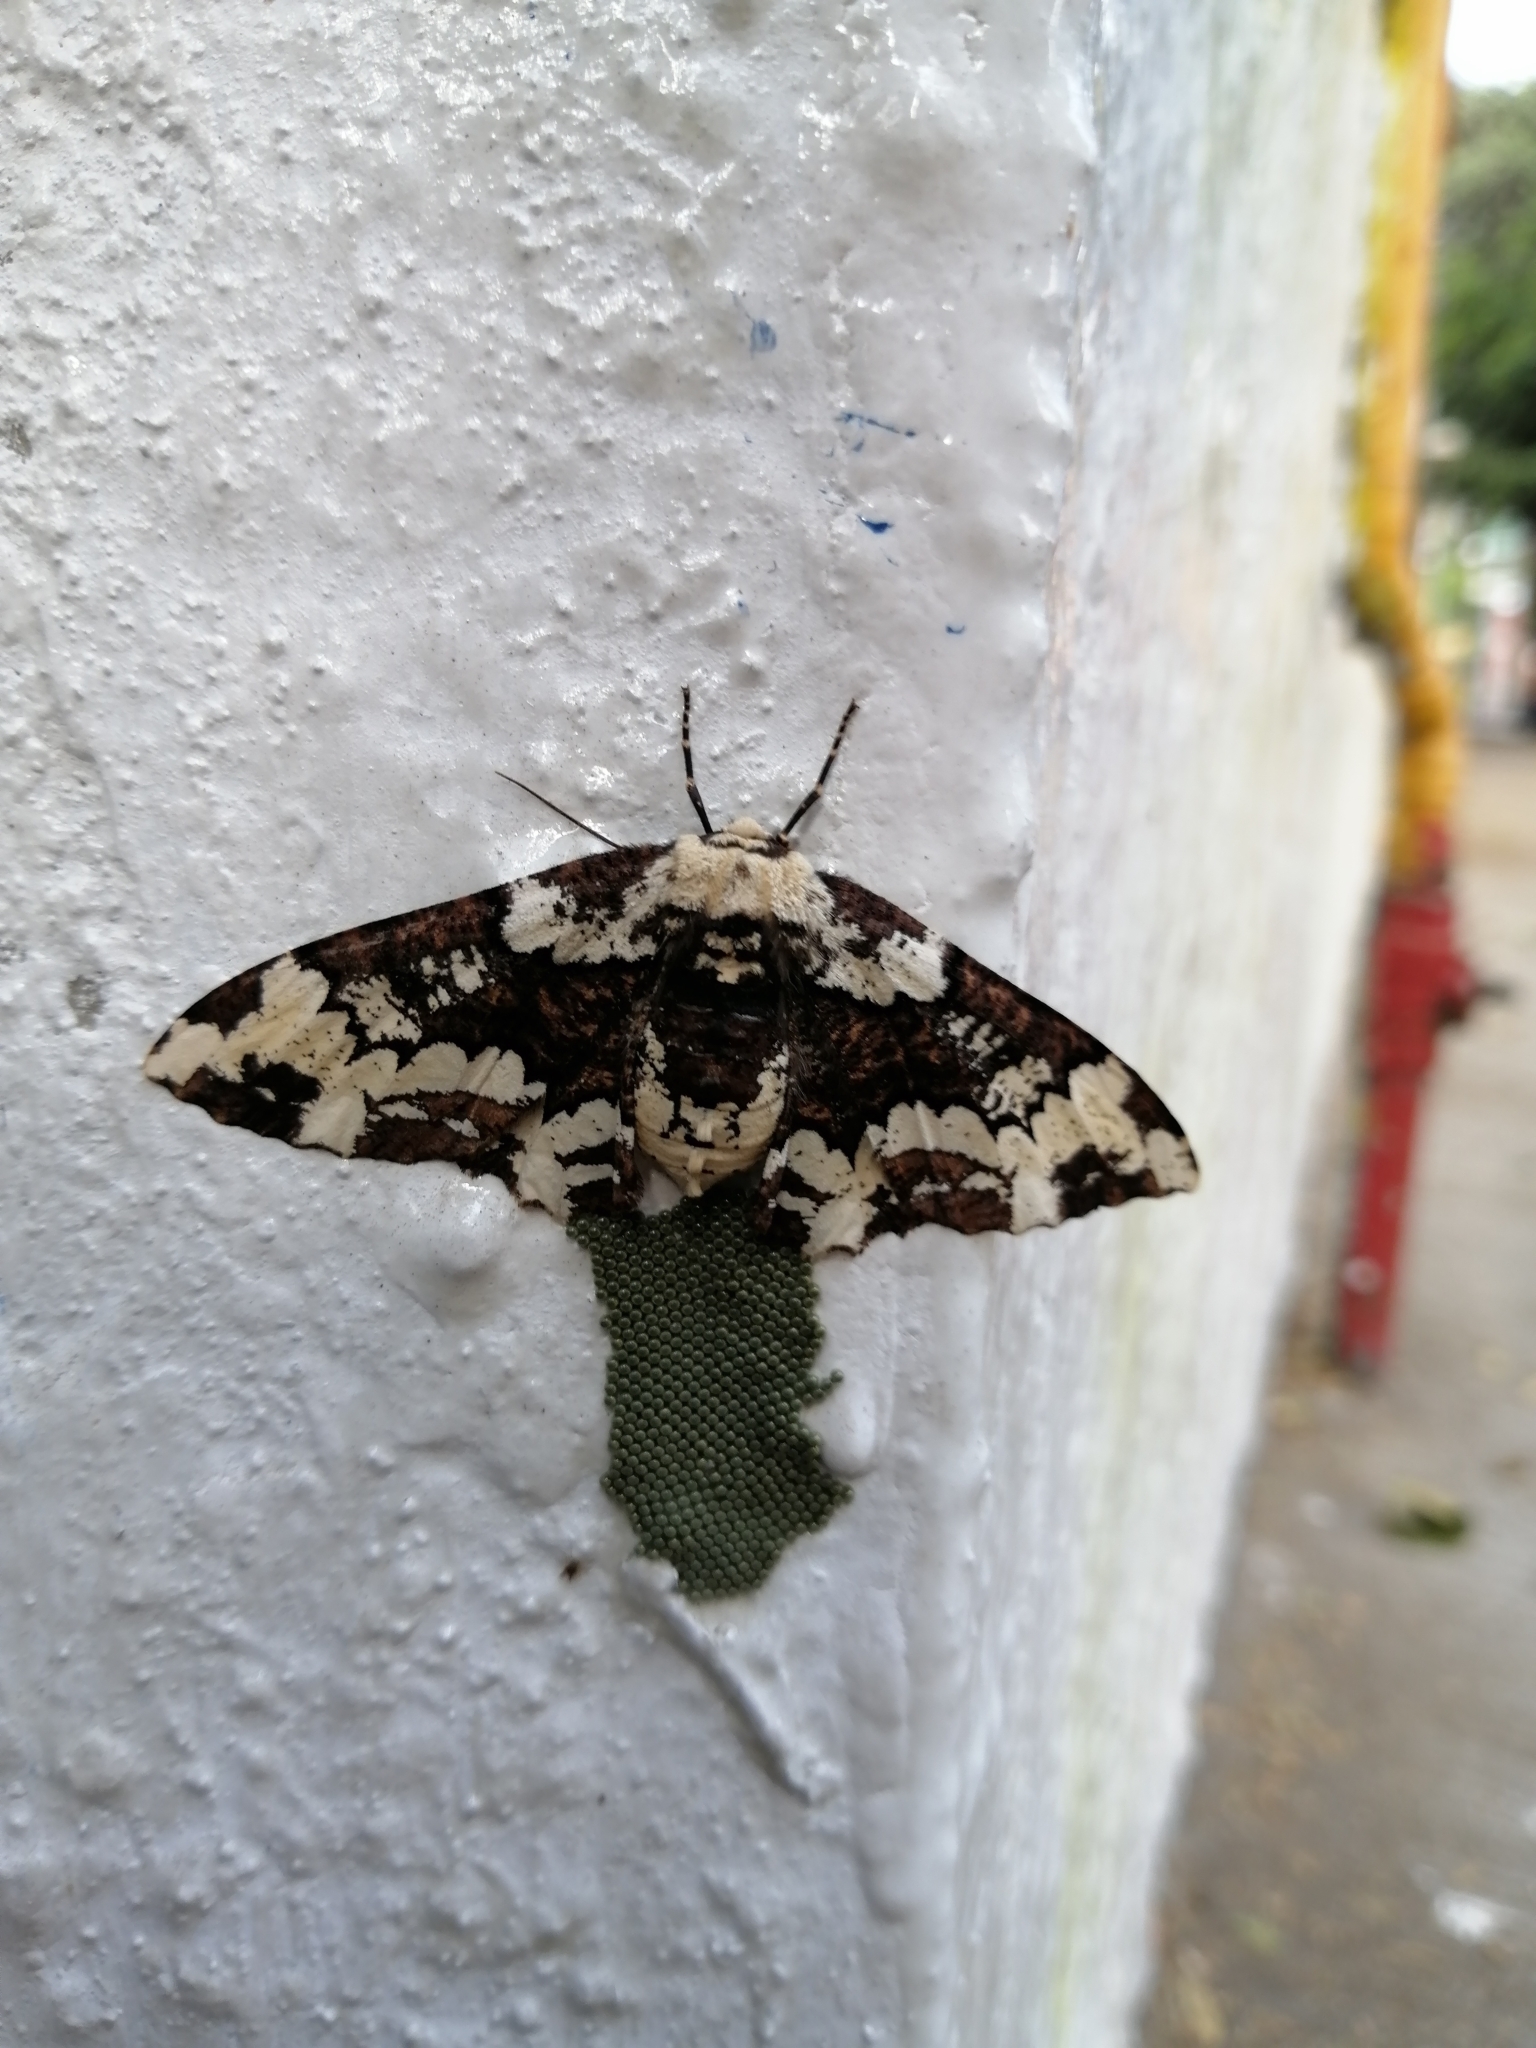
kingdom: Animalia
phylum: Arthropoda
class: Insecta
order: Lepidoptera
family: Geometridae
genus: Phaeoura
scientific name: Phaeoura cladonia
